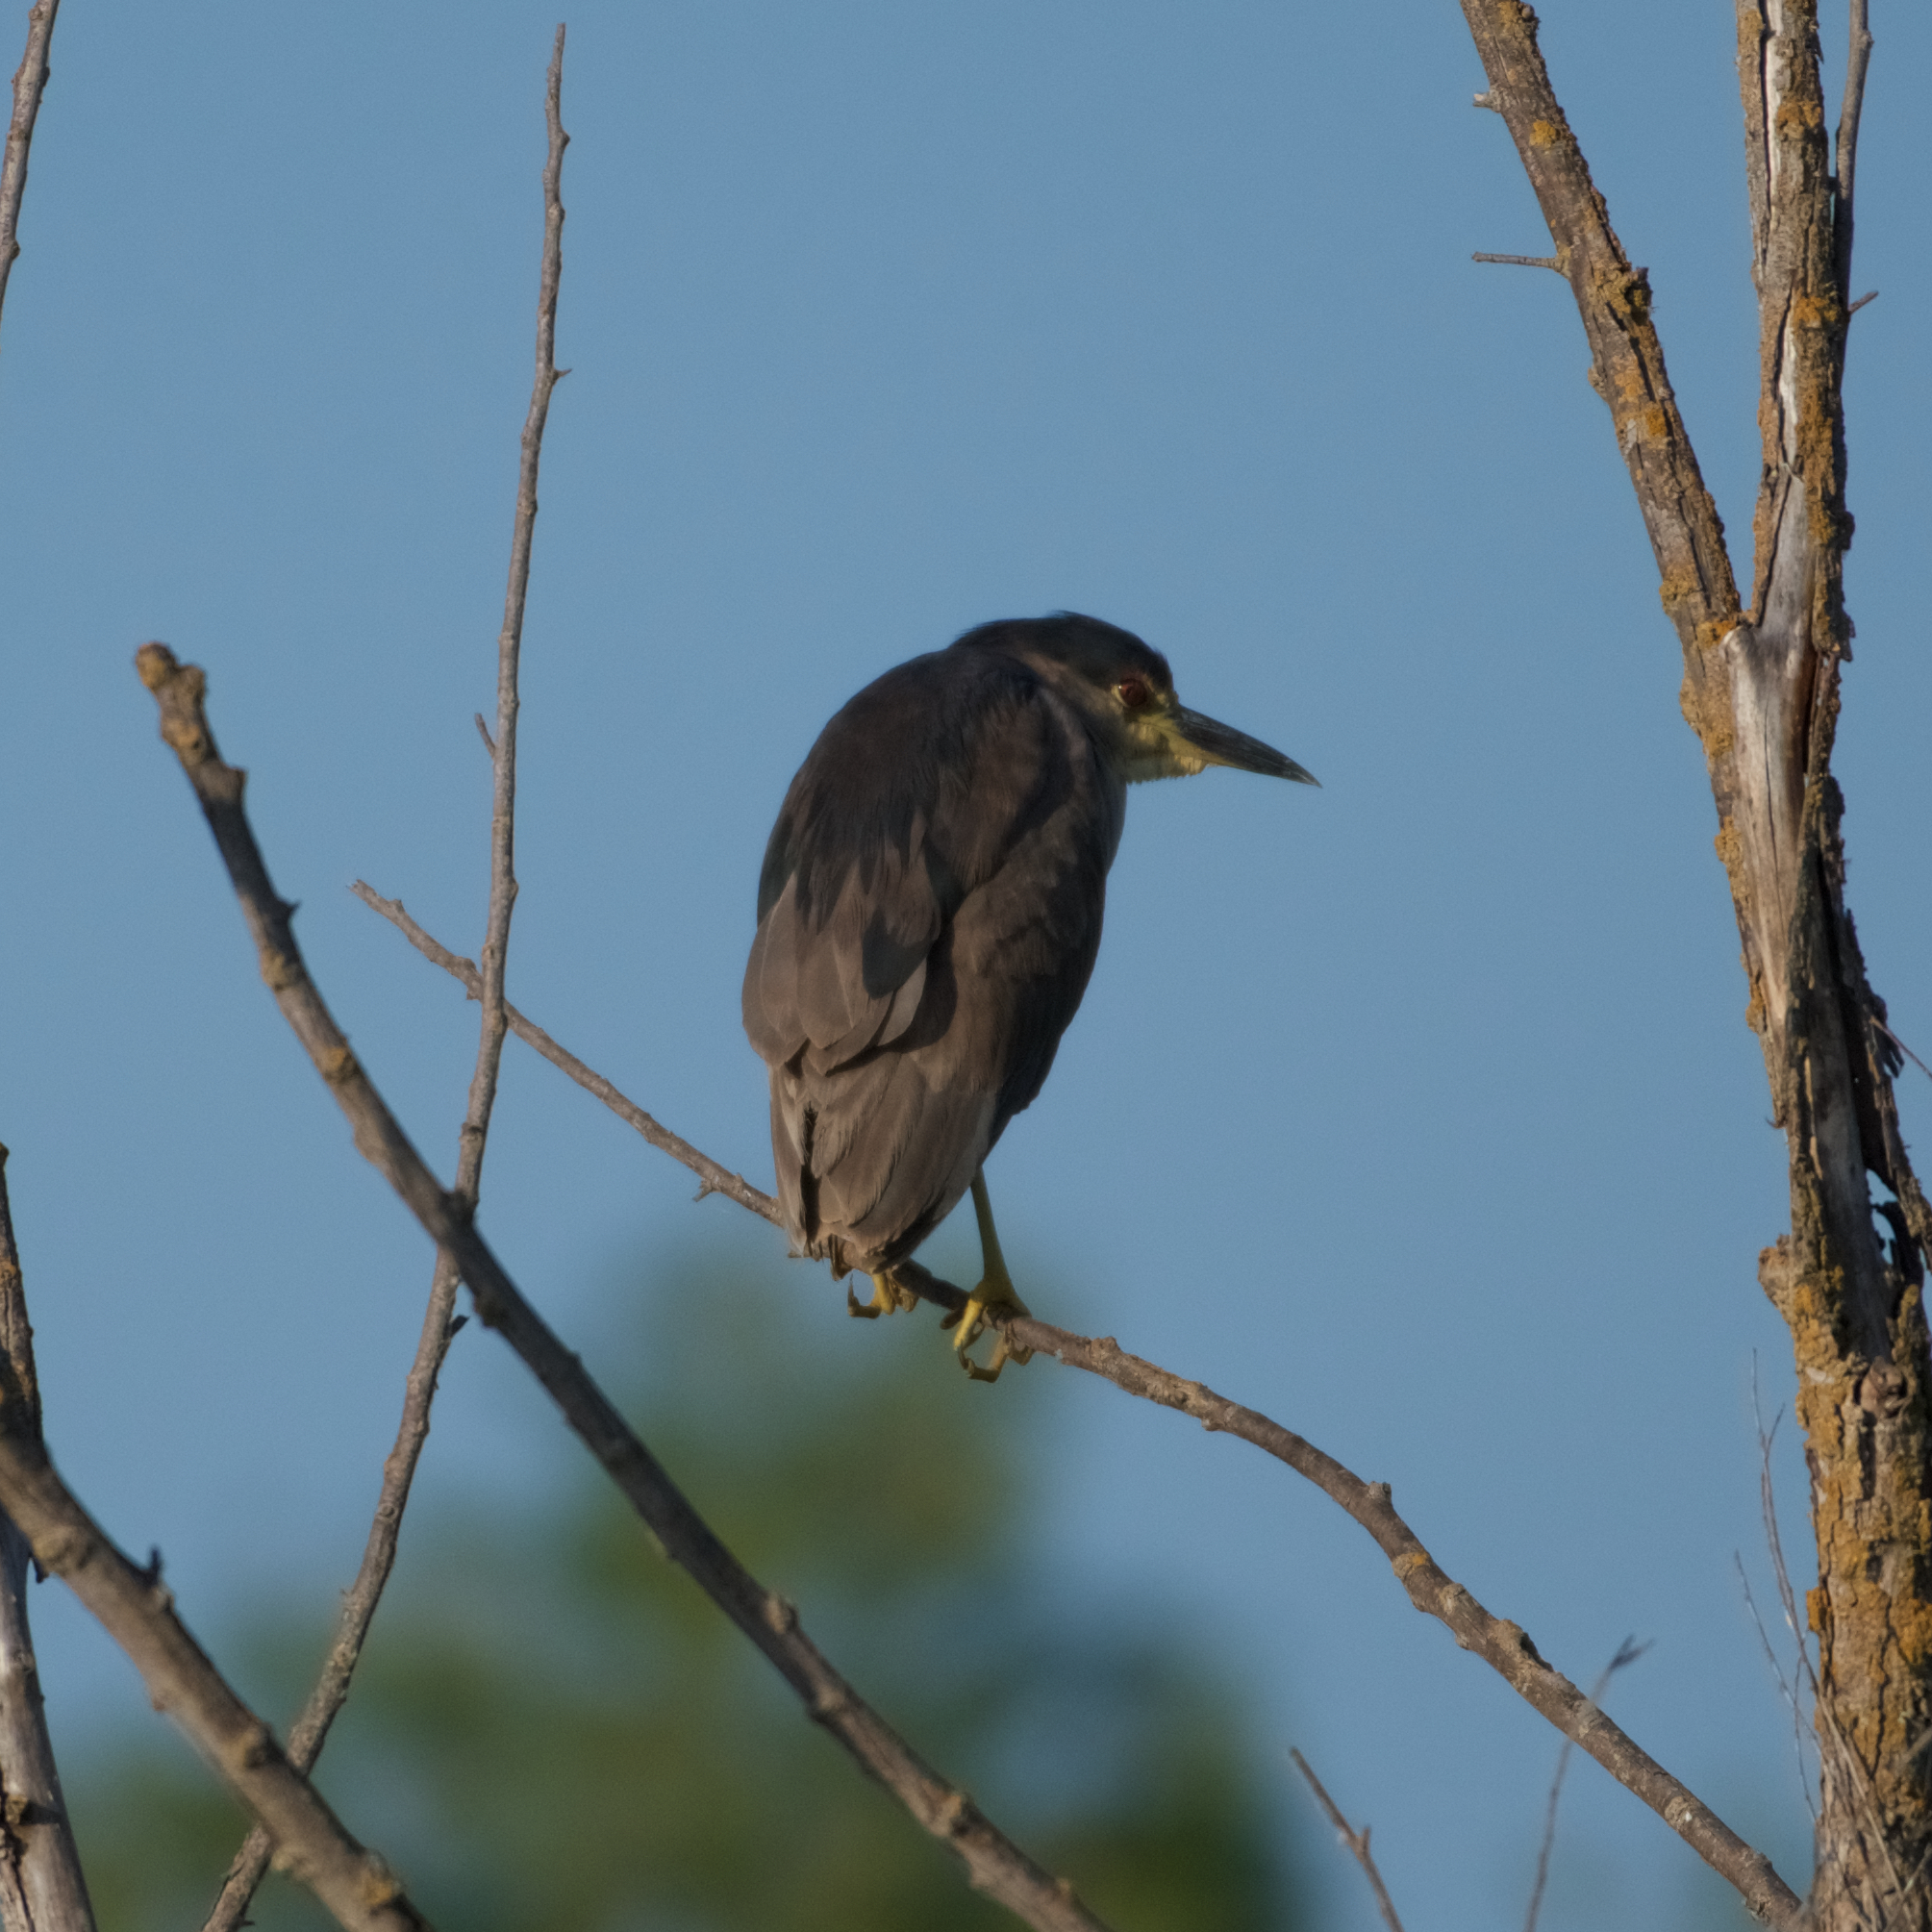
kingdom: Animalia
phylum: Chordata
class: Aves
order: Pelecaniformes
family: Ardeidae
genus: Nycticorax
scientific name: Nycticorax nycticorax
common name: Black-crowned night heron
